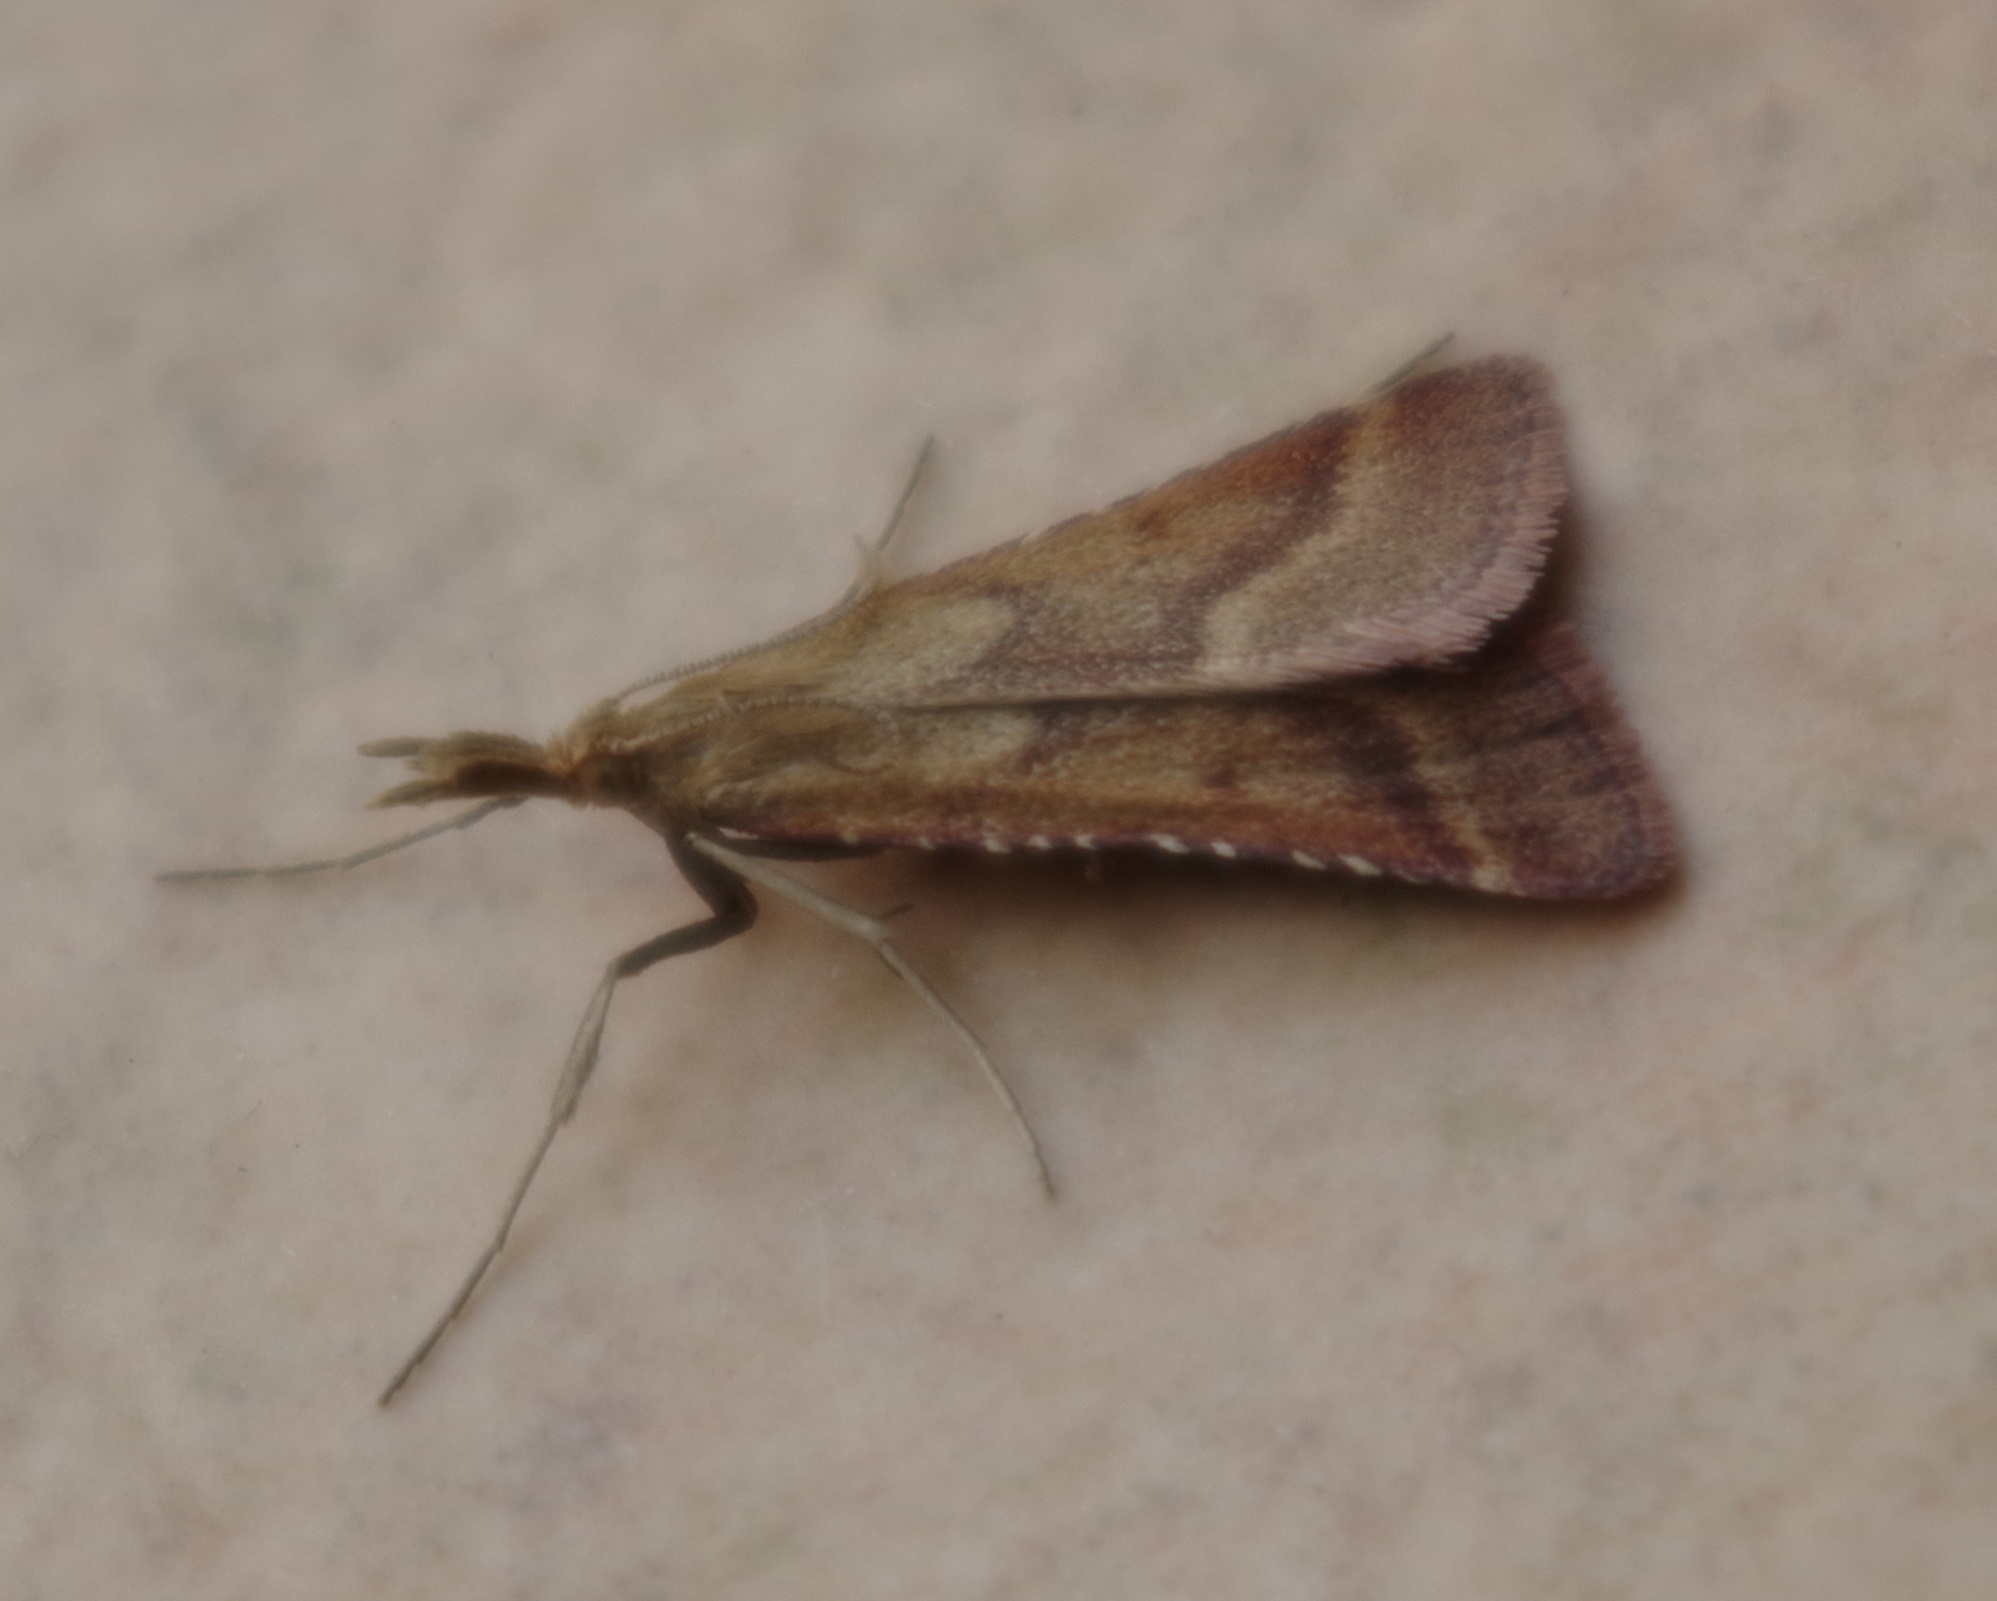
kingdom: Animalia
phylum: Arthropoda
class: Insecta
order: Lepidoptera
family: Pyralidae
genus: Synaphe
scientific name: Synaphe punctalis
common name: Long-legged tabby
